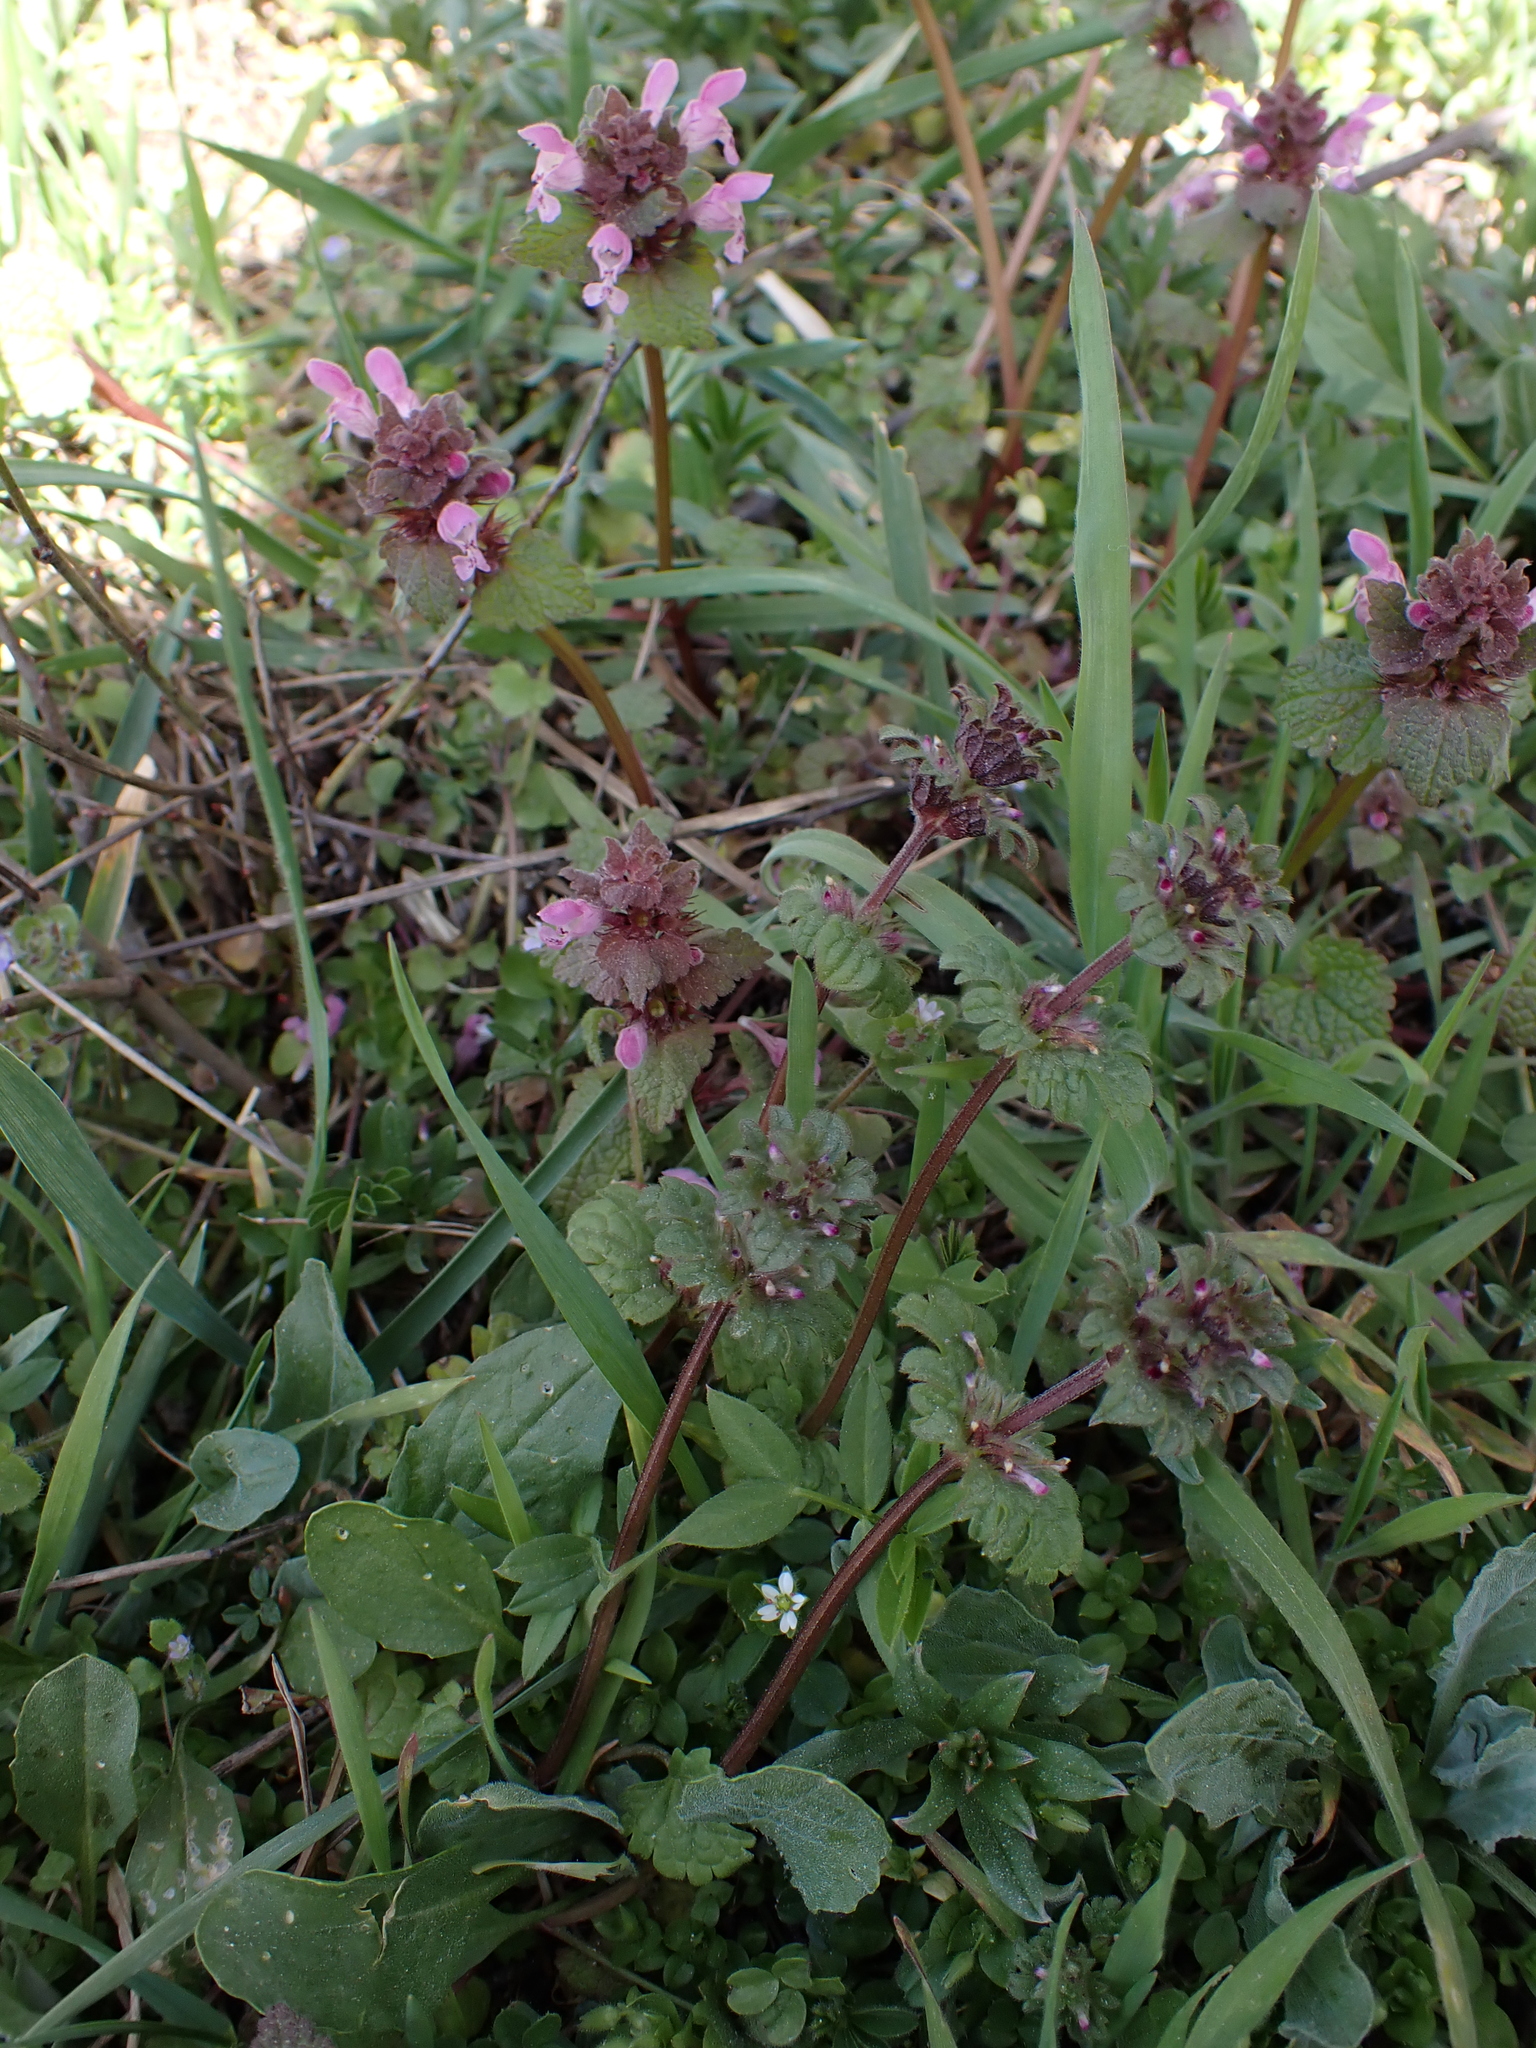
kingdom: Plantae
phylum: Tracheophyta
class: Magnoliopsida
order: Lamiales
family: Lamiaceae
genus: Lamium
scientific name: Lamium purpureum
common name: Red dead-nettle
